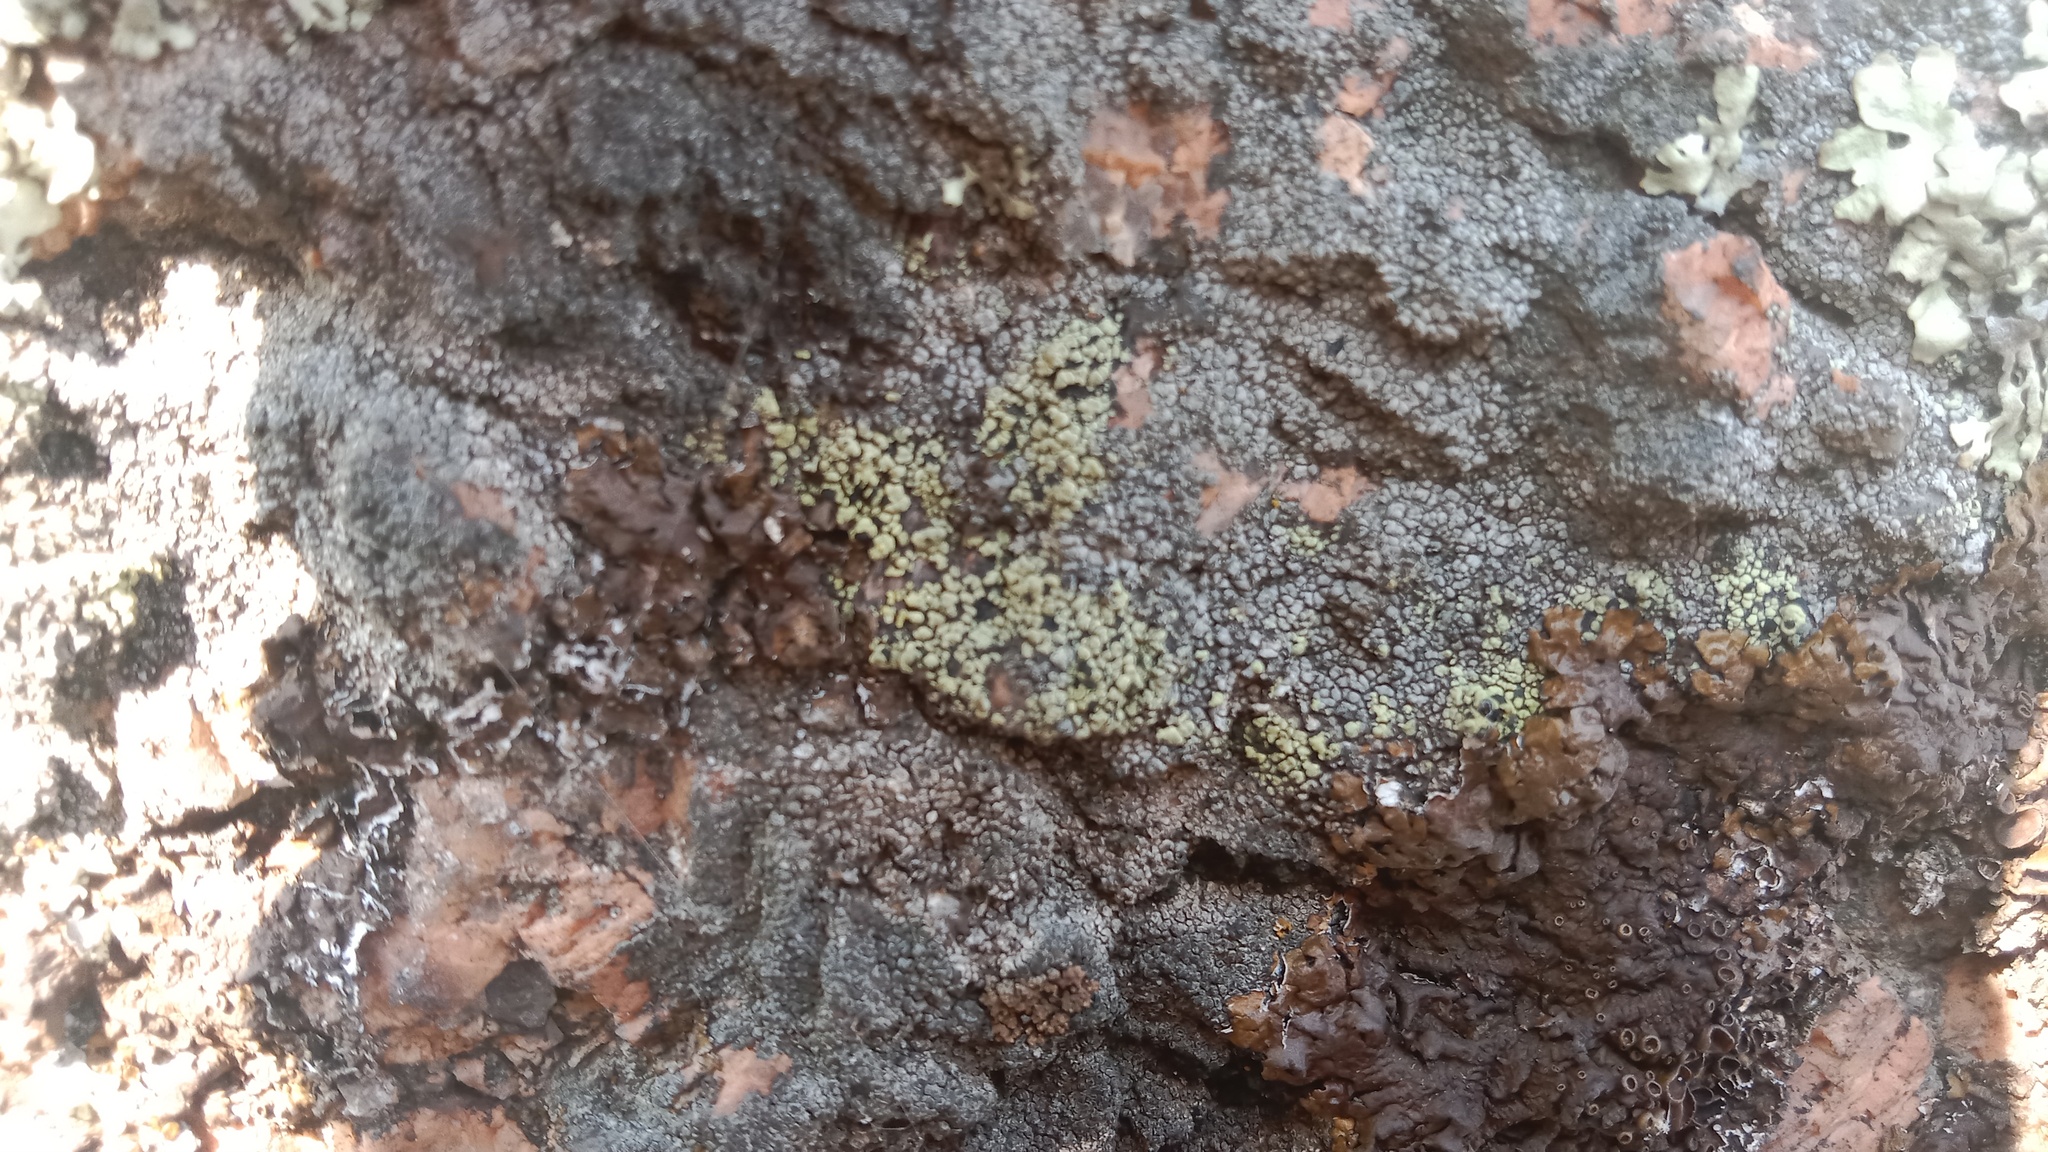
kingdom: Fungi
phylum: Ascomycota
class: Lecanoromycetes
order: Rhizocarpales
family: Rhizocarpaceae
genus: Rhizocarpon
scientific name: Rhizocarpon geographicum
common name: Yellow map lichen
